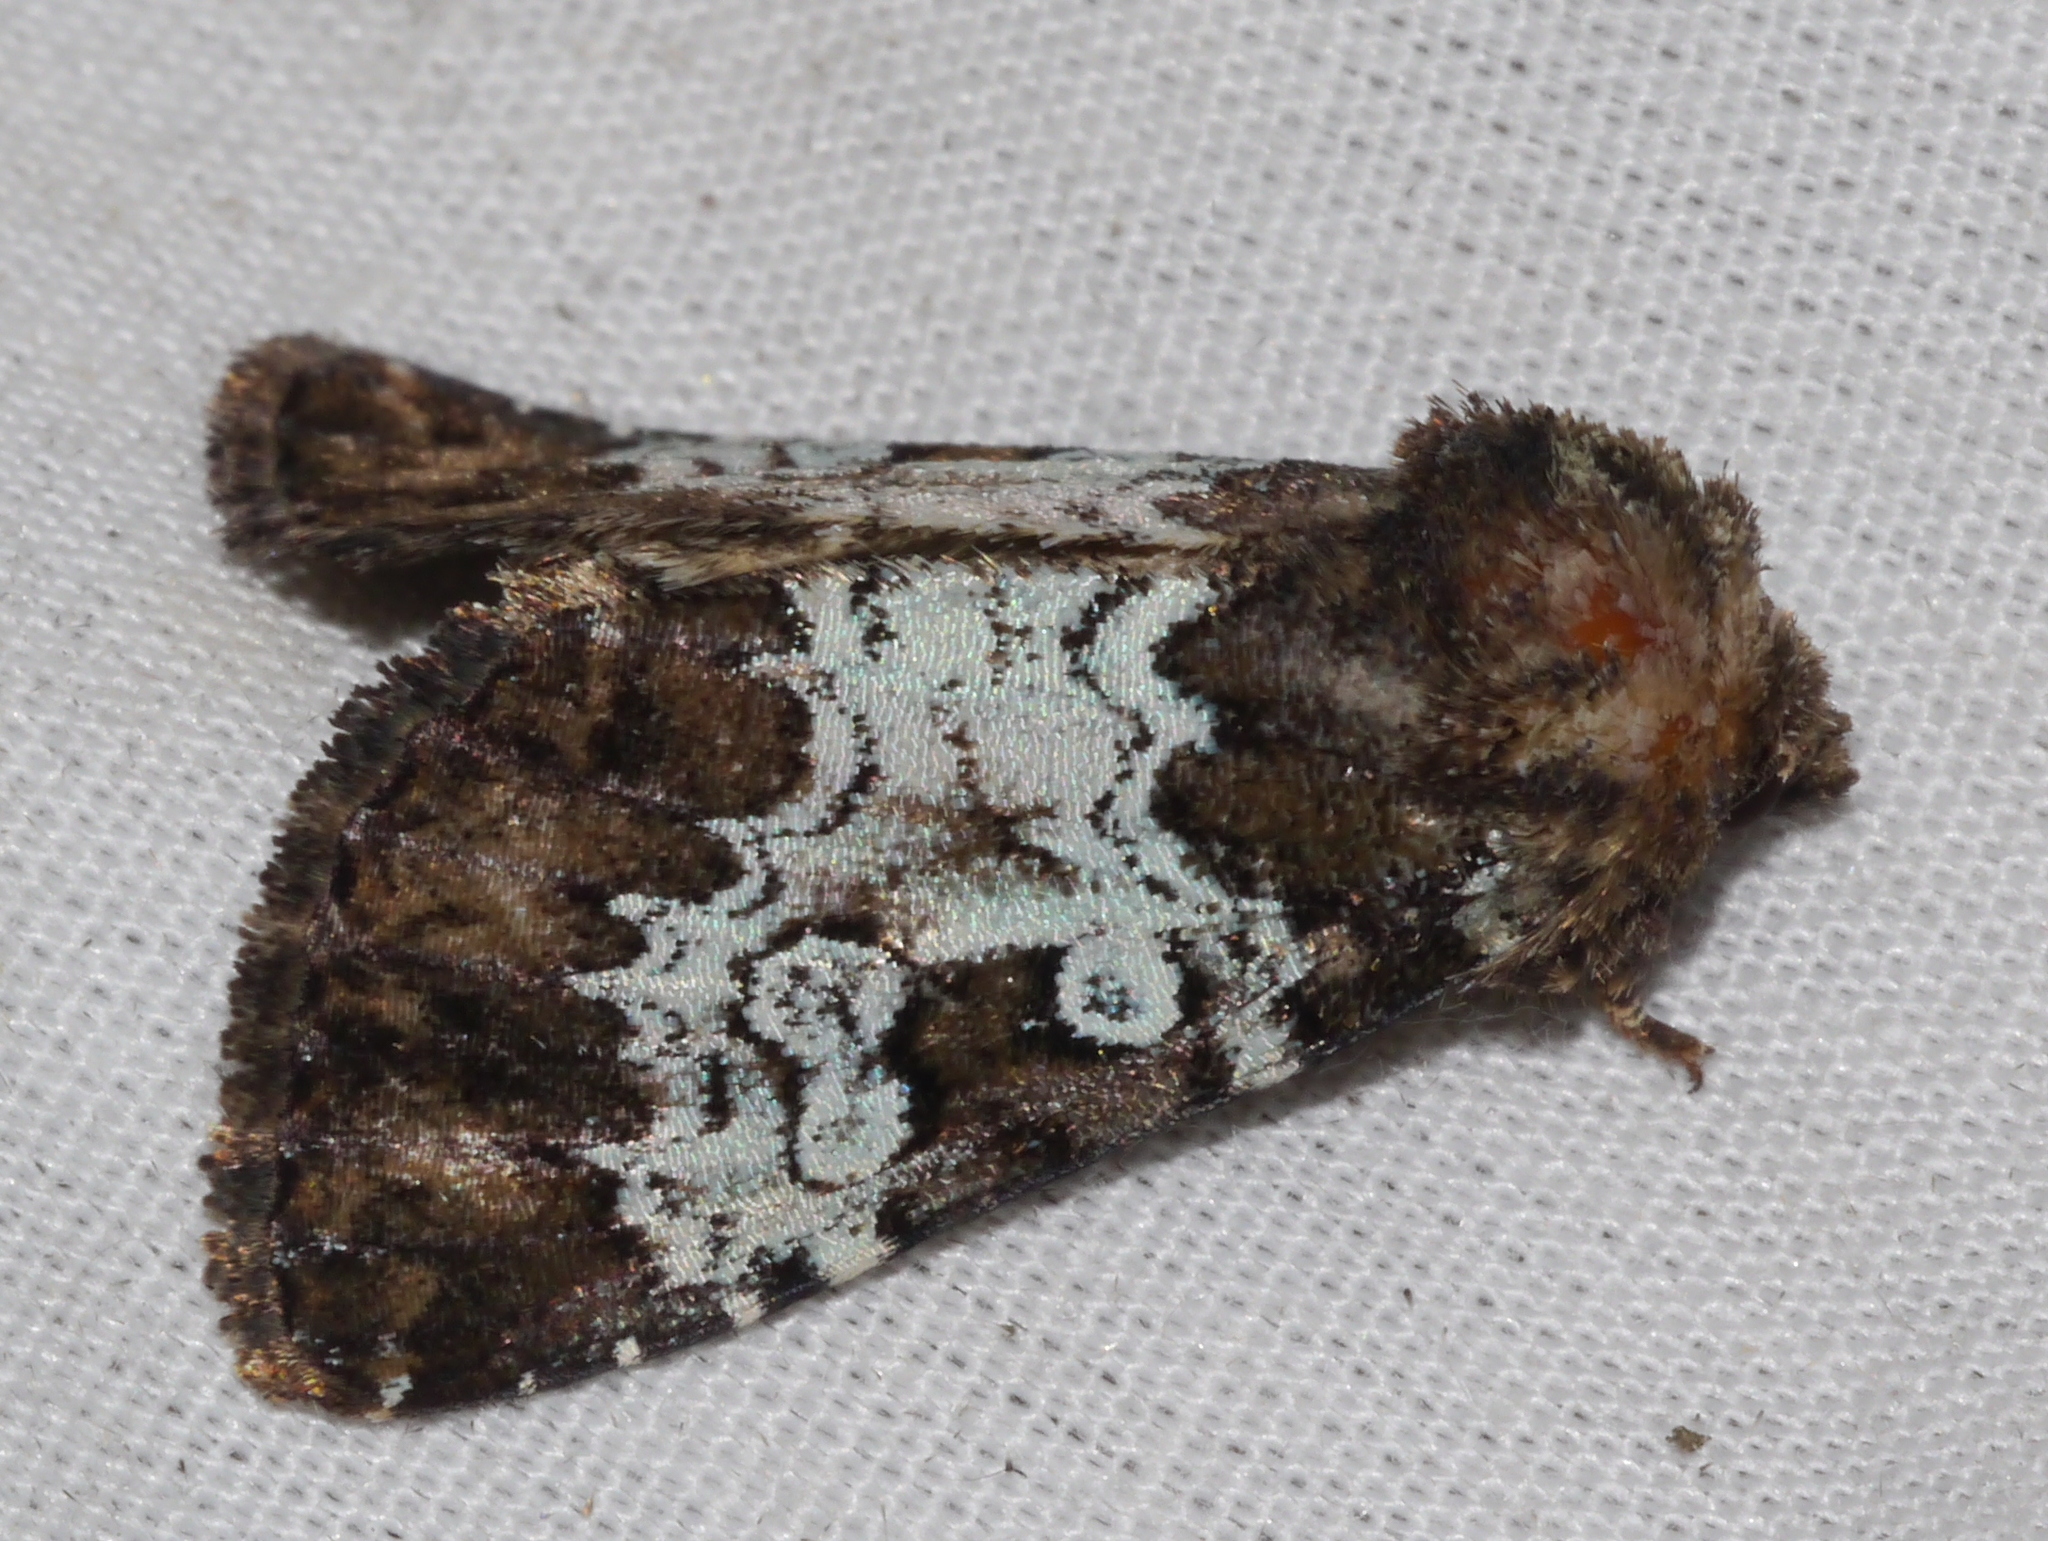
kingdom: Animalia
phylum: Arthropoda
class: Insecta
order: Lepidoptera
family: Noctuidae
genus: Euamiana
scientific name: Euamiana contrasta
